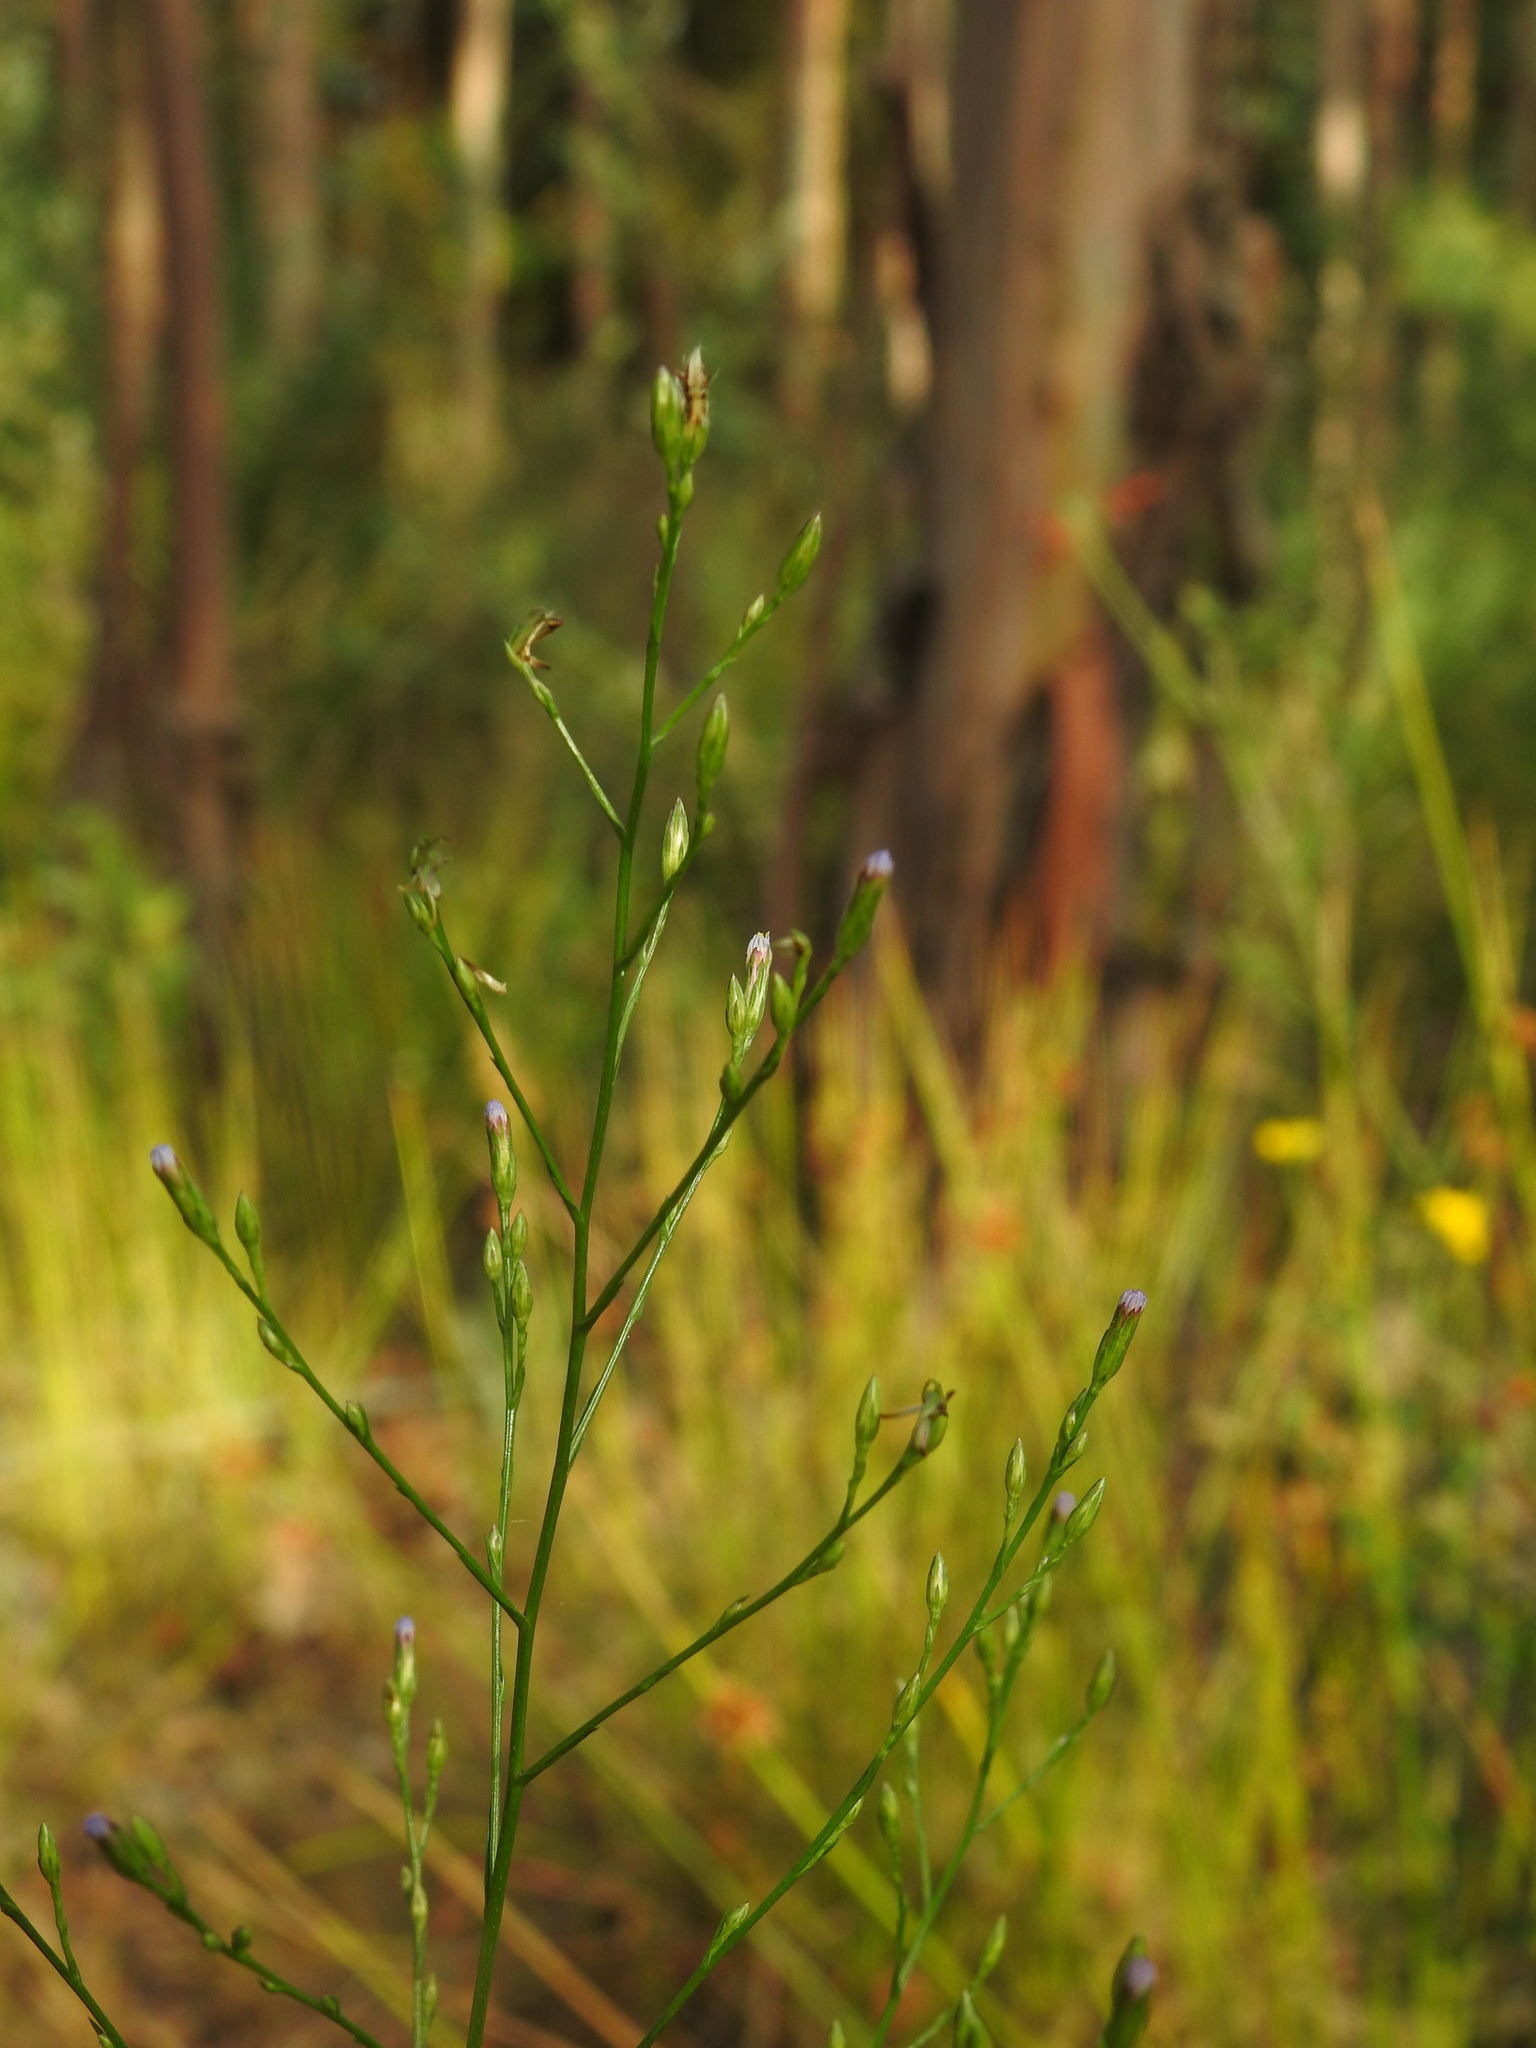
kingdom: Plantae
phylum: Tracheophyta
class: Magnoliopsida
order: Asterales
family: Asteraceae
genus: Symphyotrichum
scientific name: Symphyotrichum squamatum
